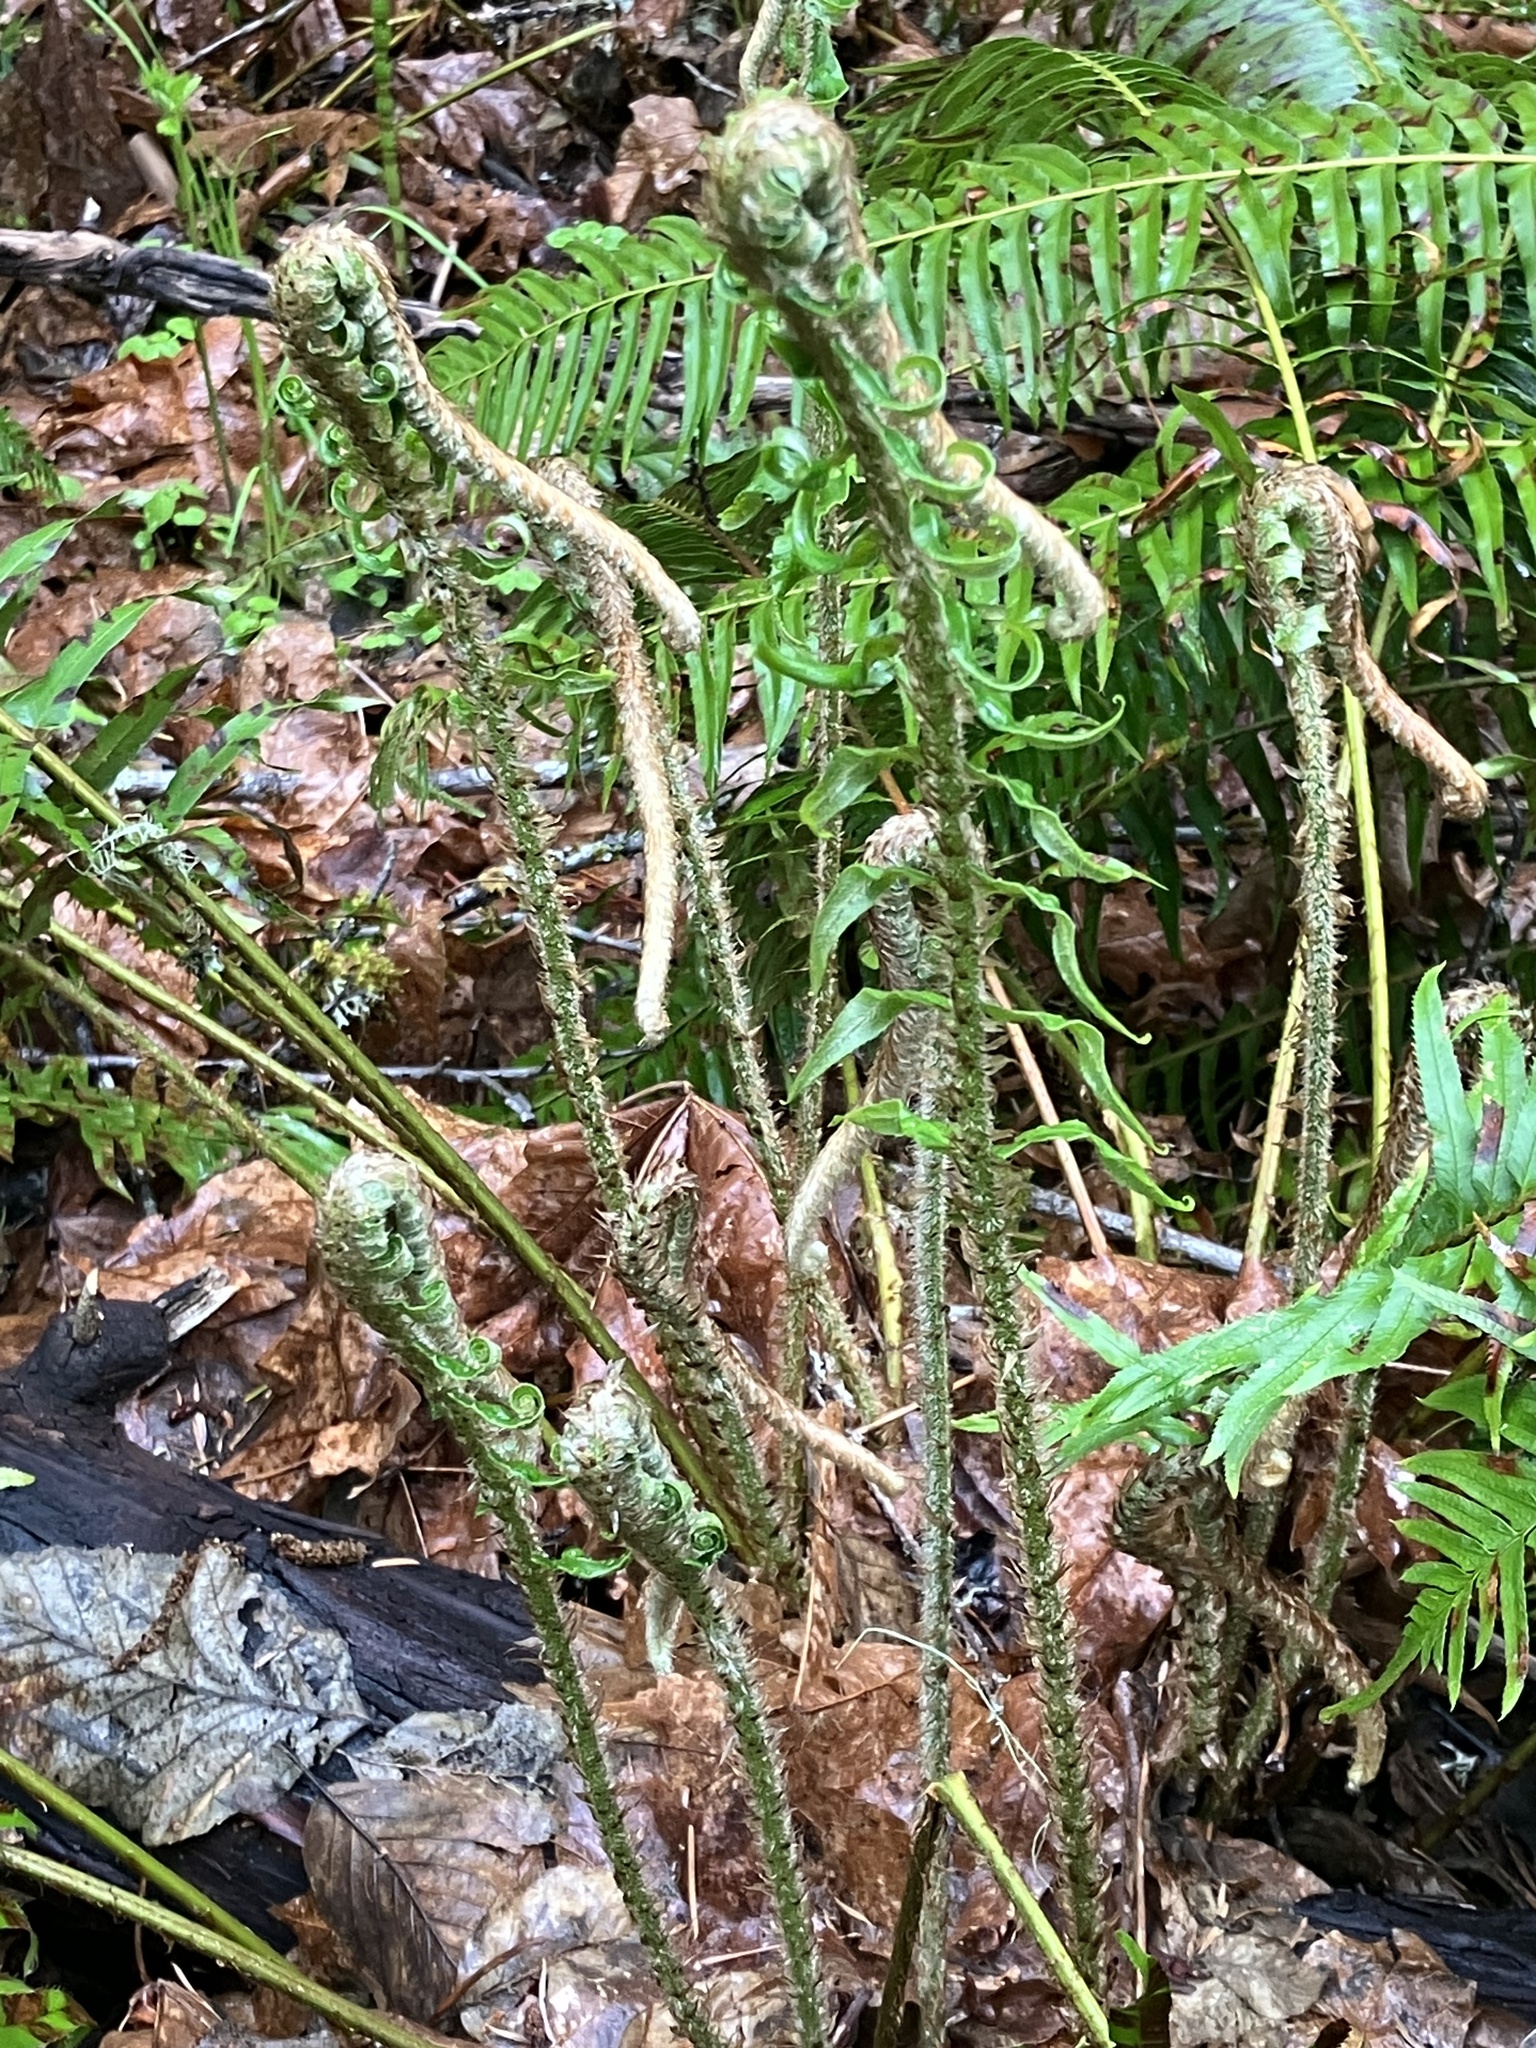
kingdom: Plantae
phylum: Tracheophyta
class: Polypodiopsida
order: Polypodiales
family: Dryopteridaceae
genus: Polystichum
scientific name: Polystichum munitum
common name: Western sword-fern
